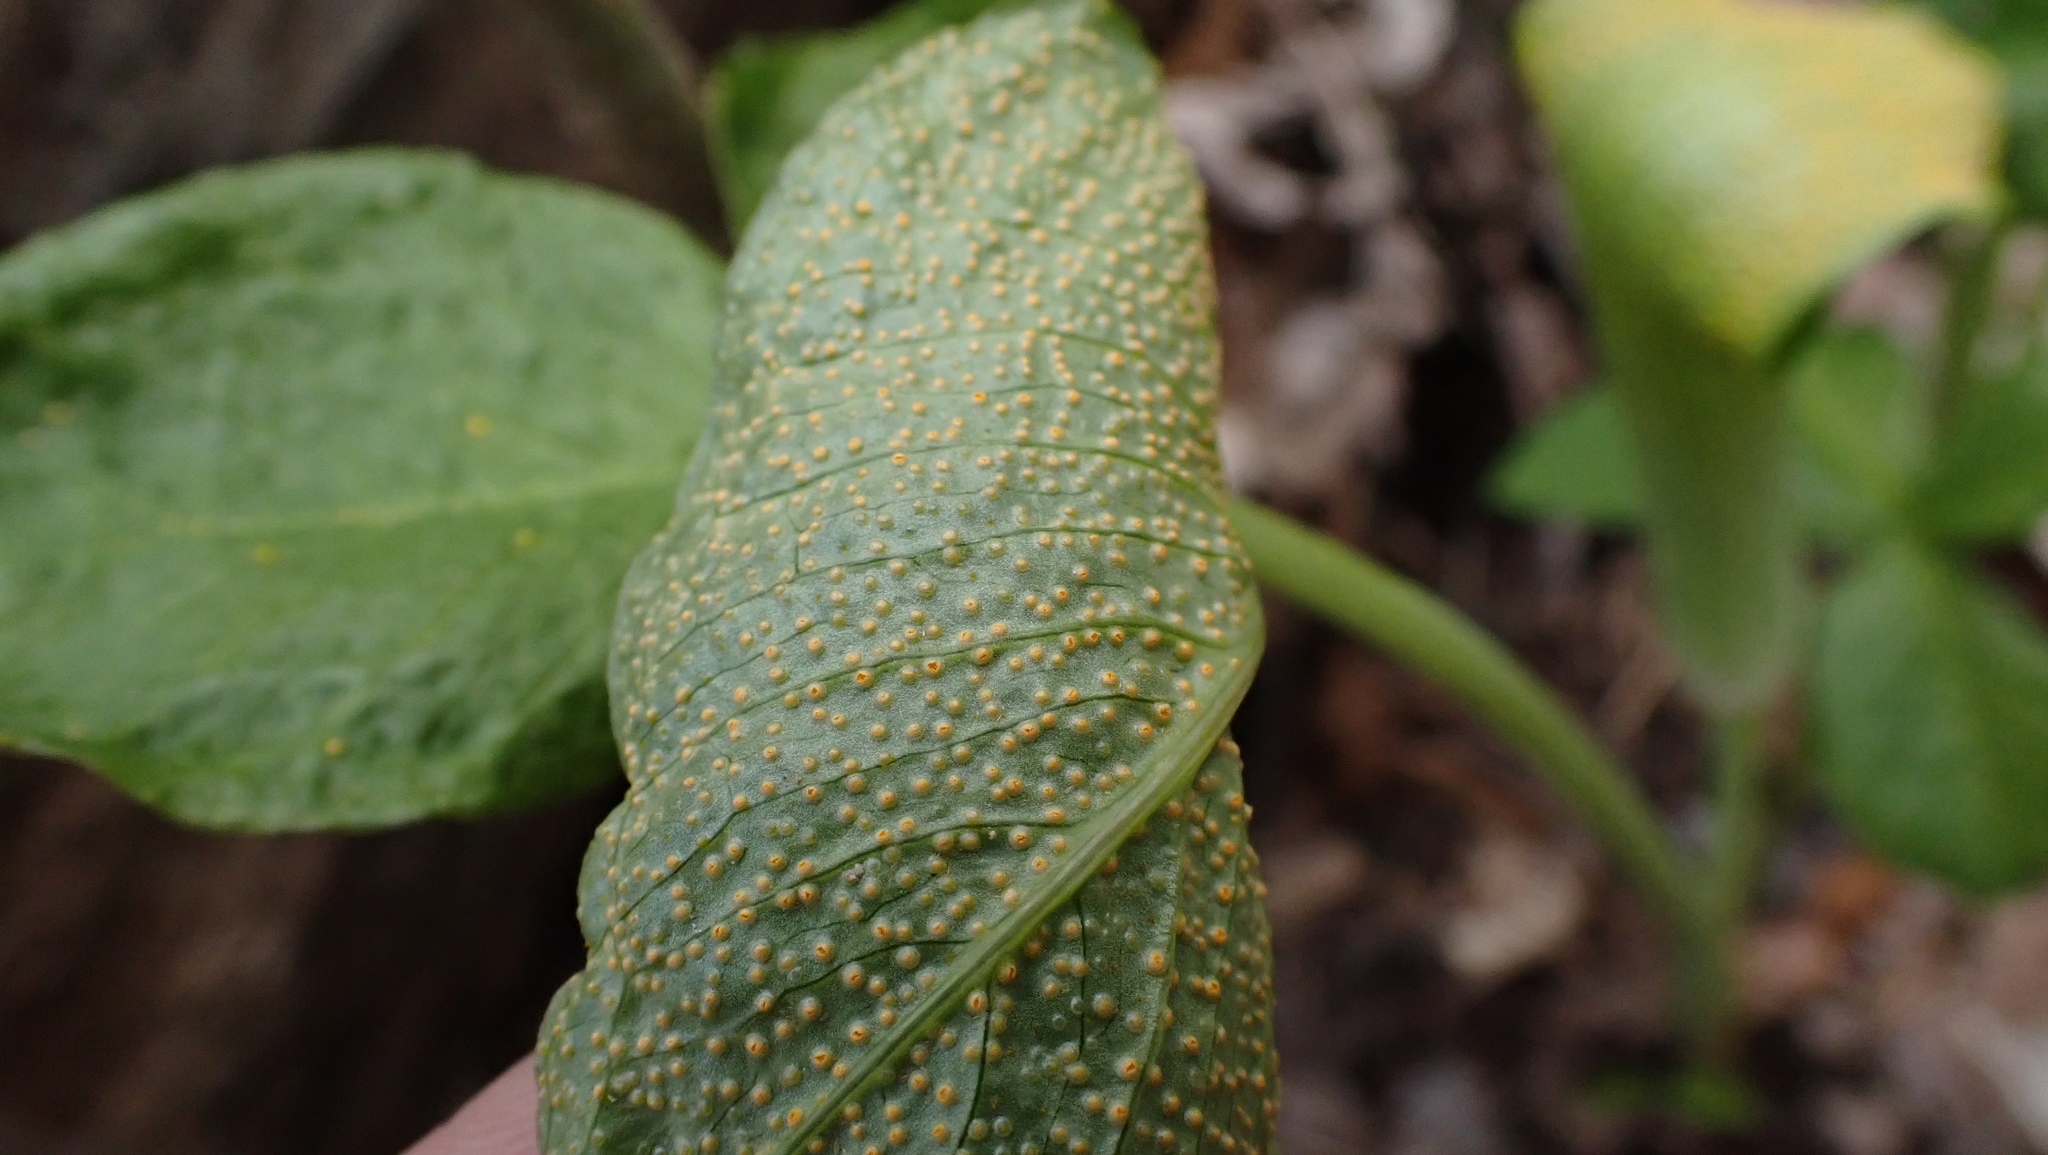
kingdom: Fungi
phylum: Basidiomycota
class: Pucciniomycetes
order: Pucciniales
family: Pucciniaceae
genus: Uromyces
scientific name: Uromyces ari-triphylli
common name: Jack-in-the-pulpit rust
